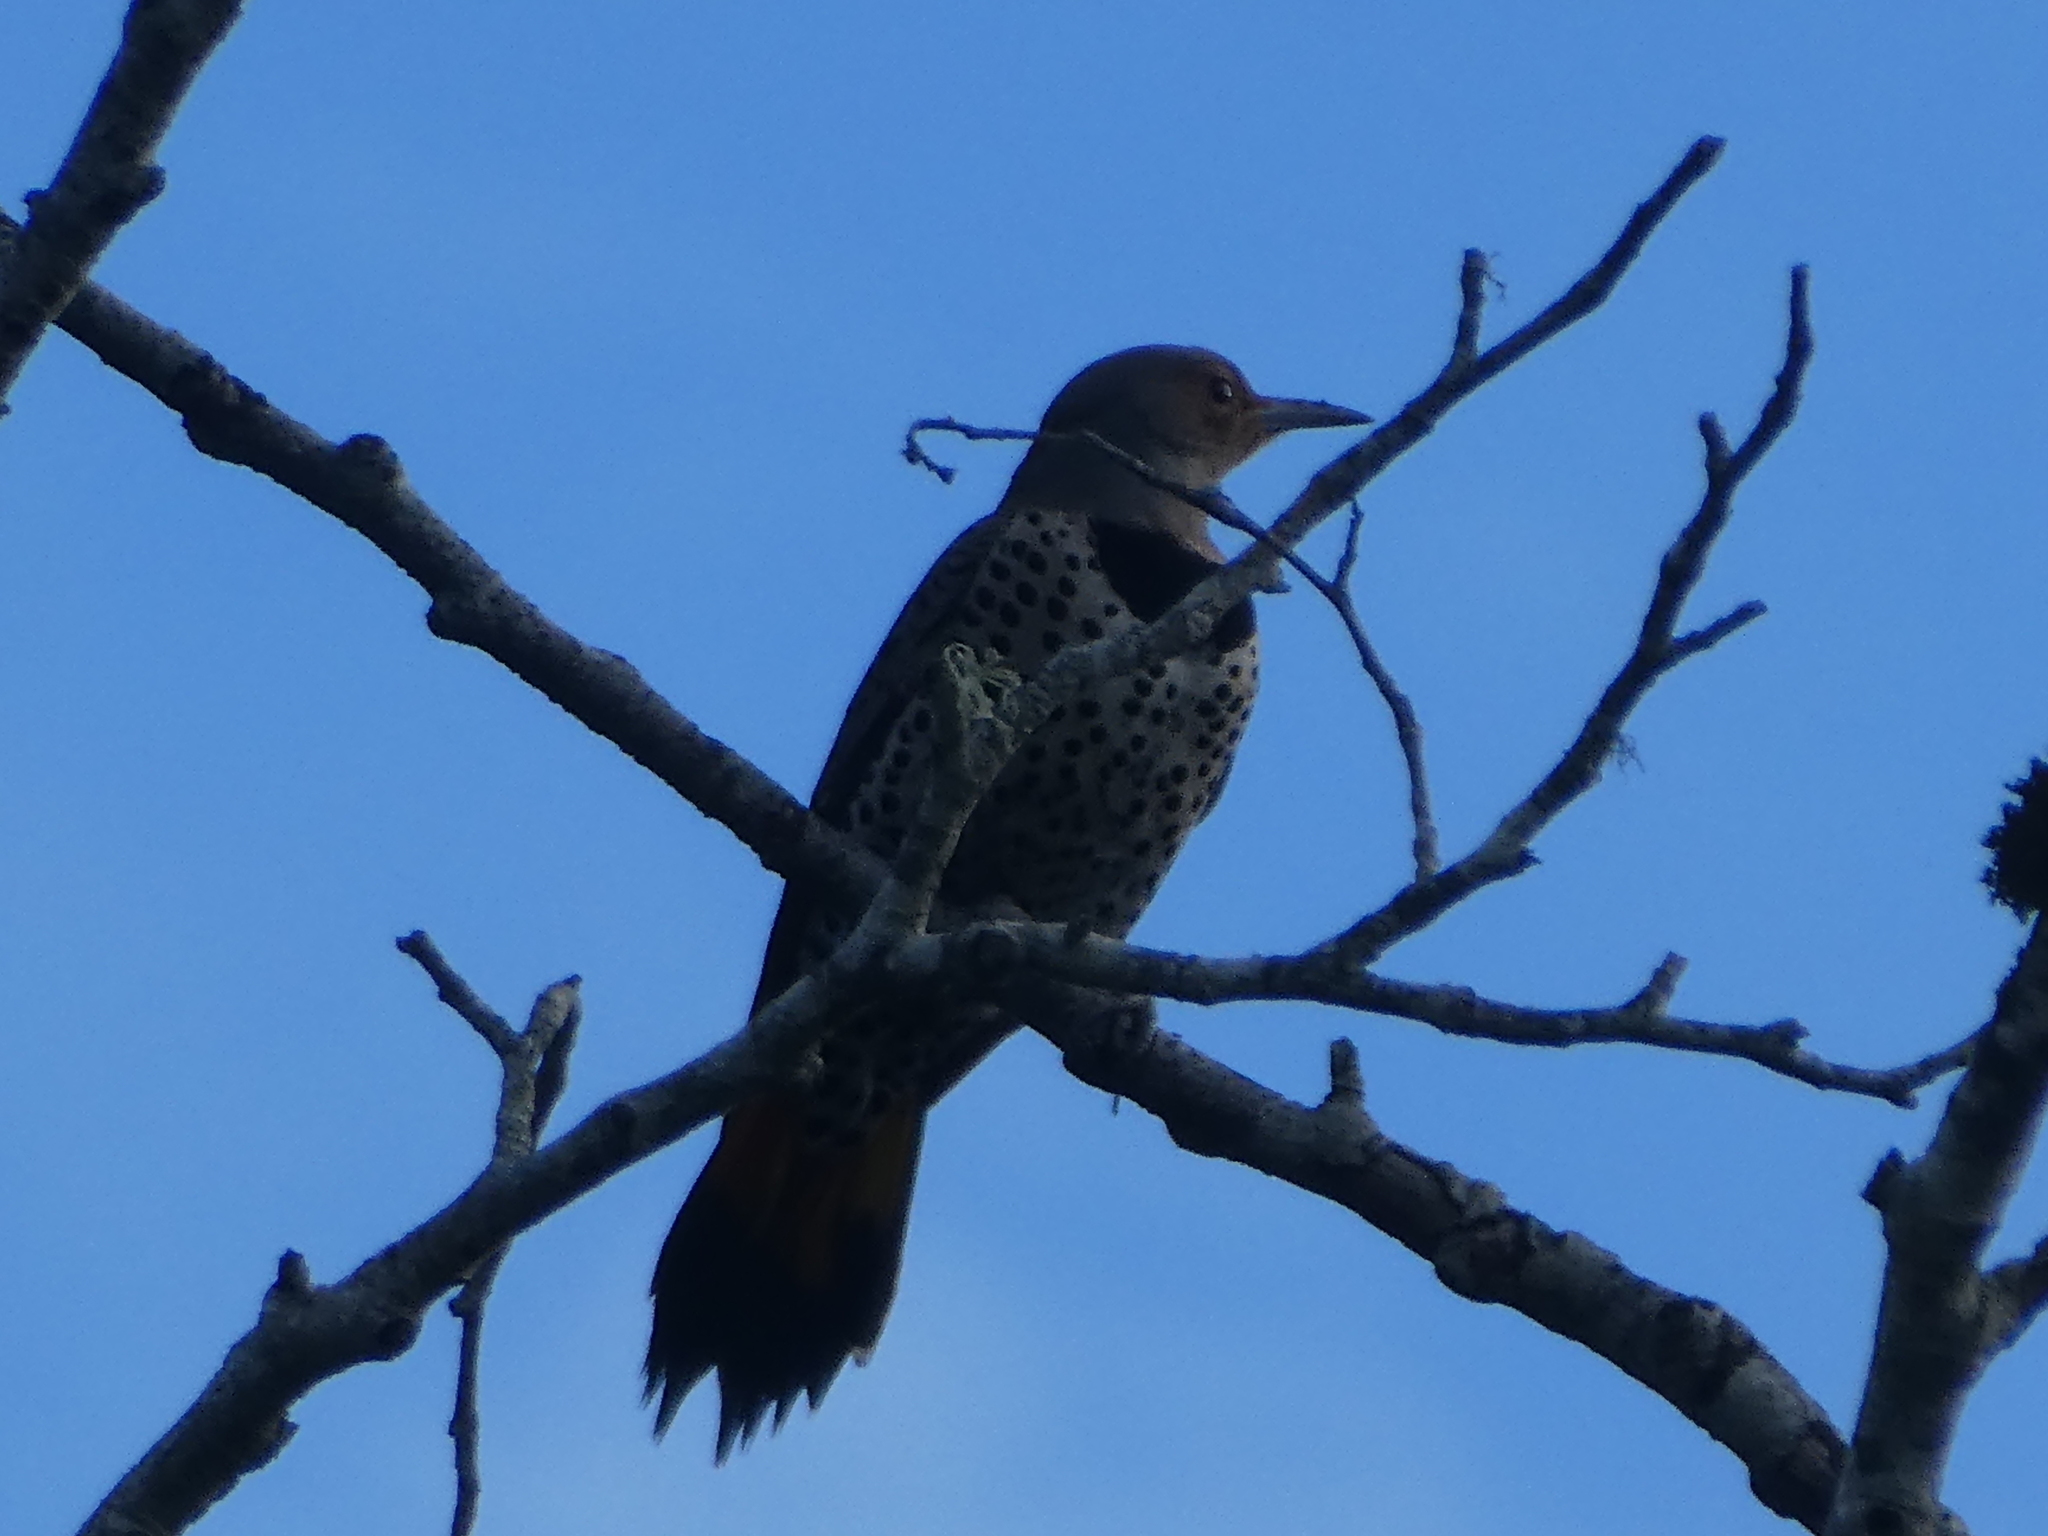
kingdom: Animalia
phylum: Chordata
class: Aves
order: Piciformes
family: Picidae
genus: Colaptes
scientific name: Colaptes auratus
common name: Northern flicker
